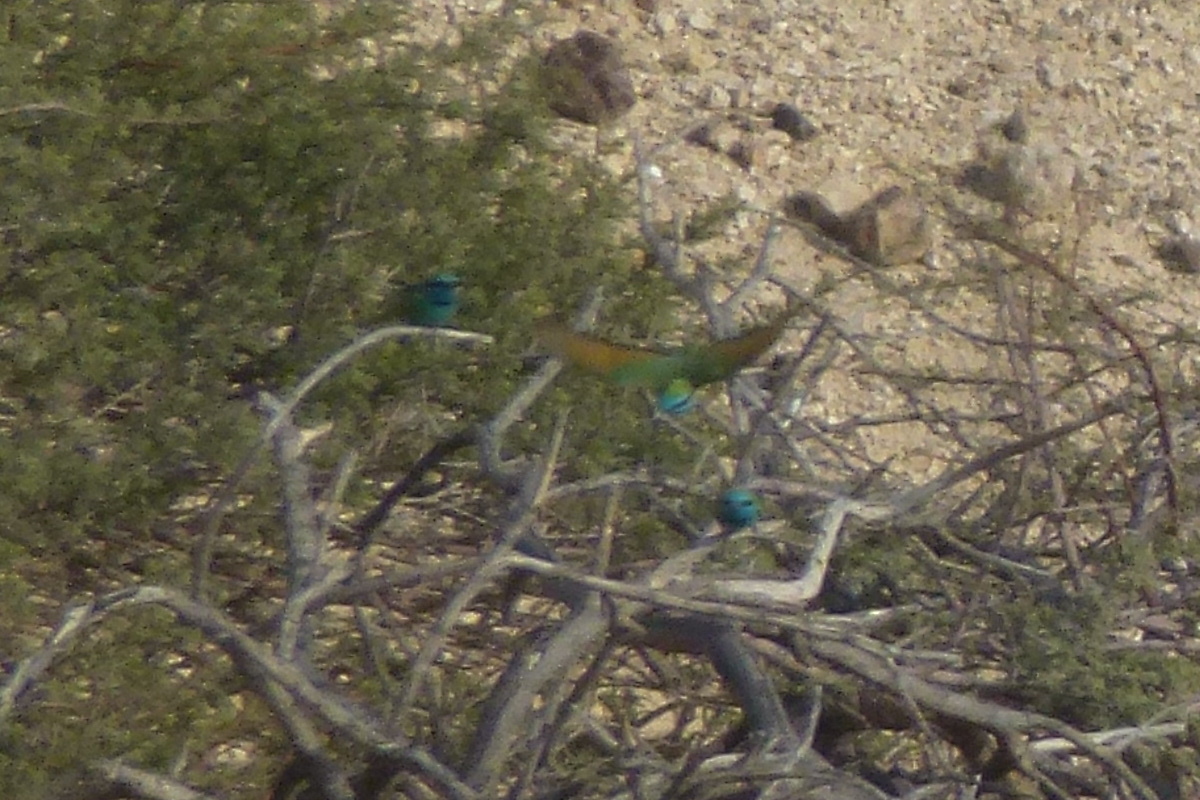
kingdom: Animalia
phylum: Chordata
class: Aves
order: Coraciiformes
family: Meropidae
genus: Merops
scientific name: Merops cyanophrys
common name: Arabian green bee-eater
